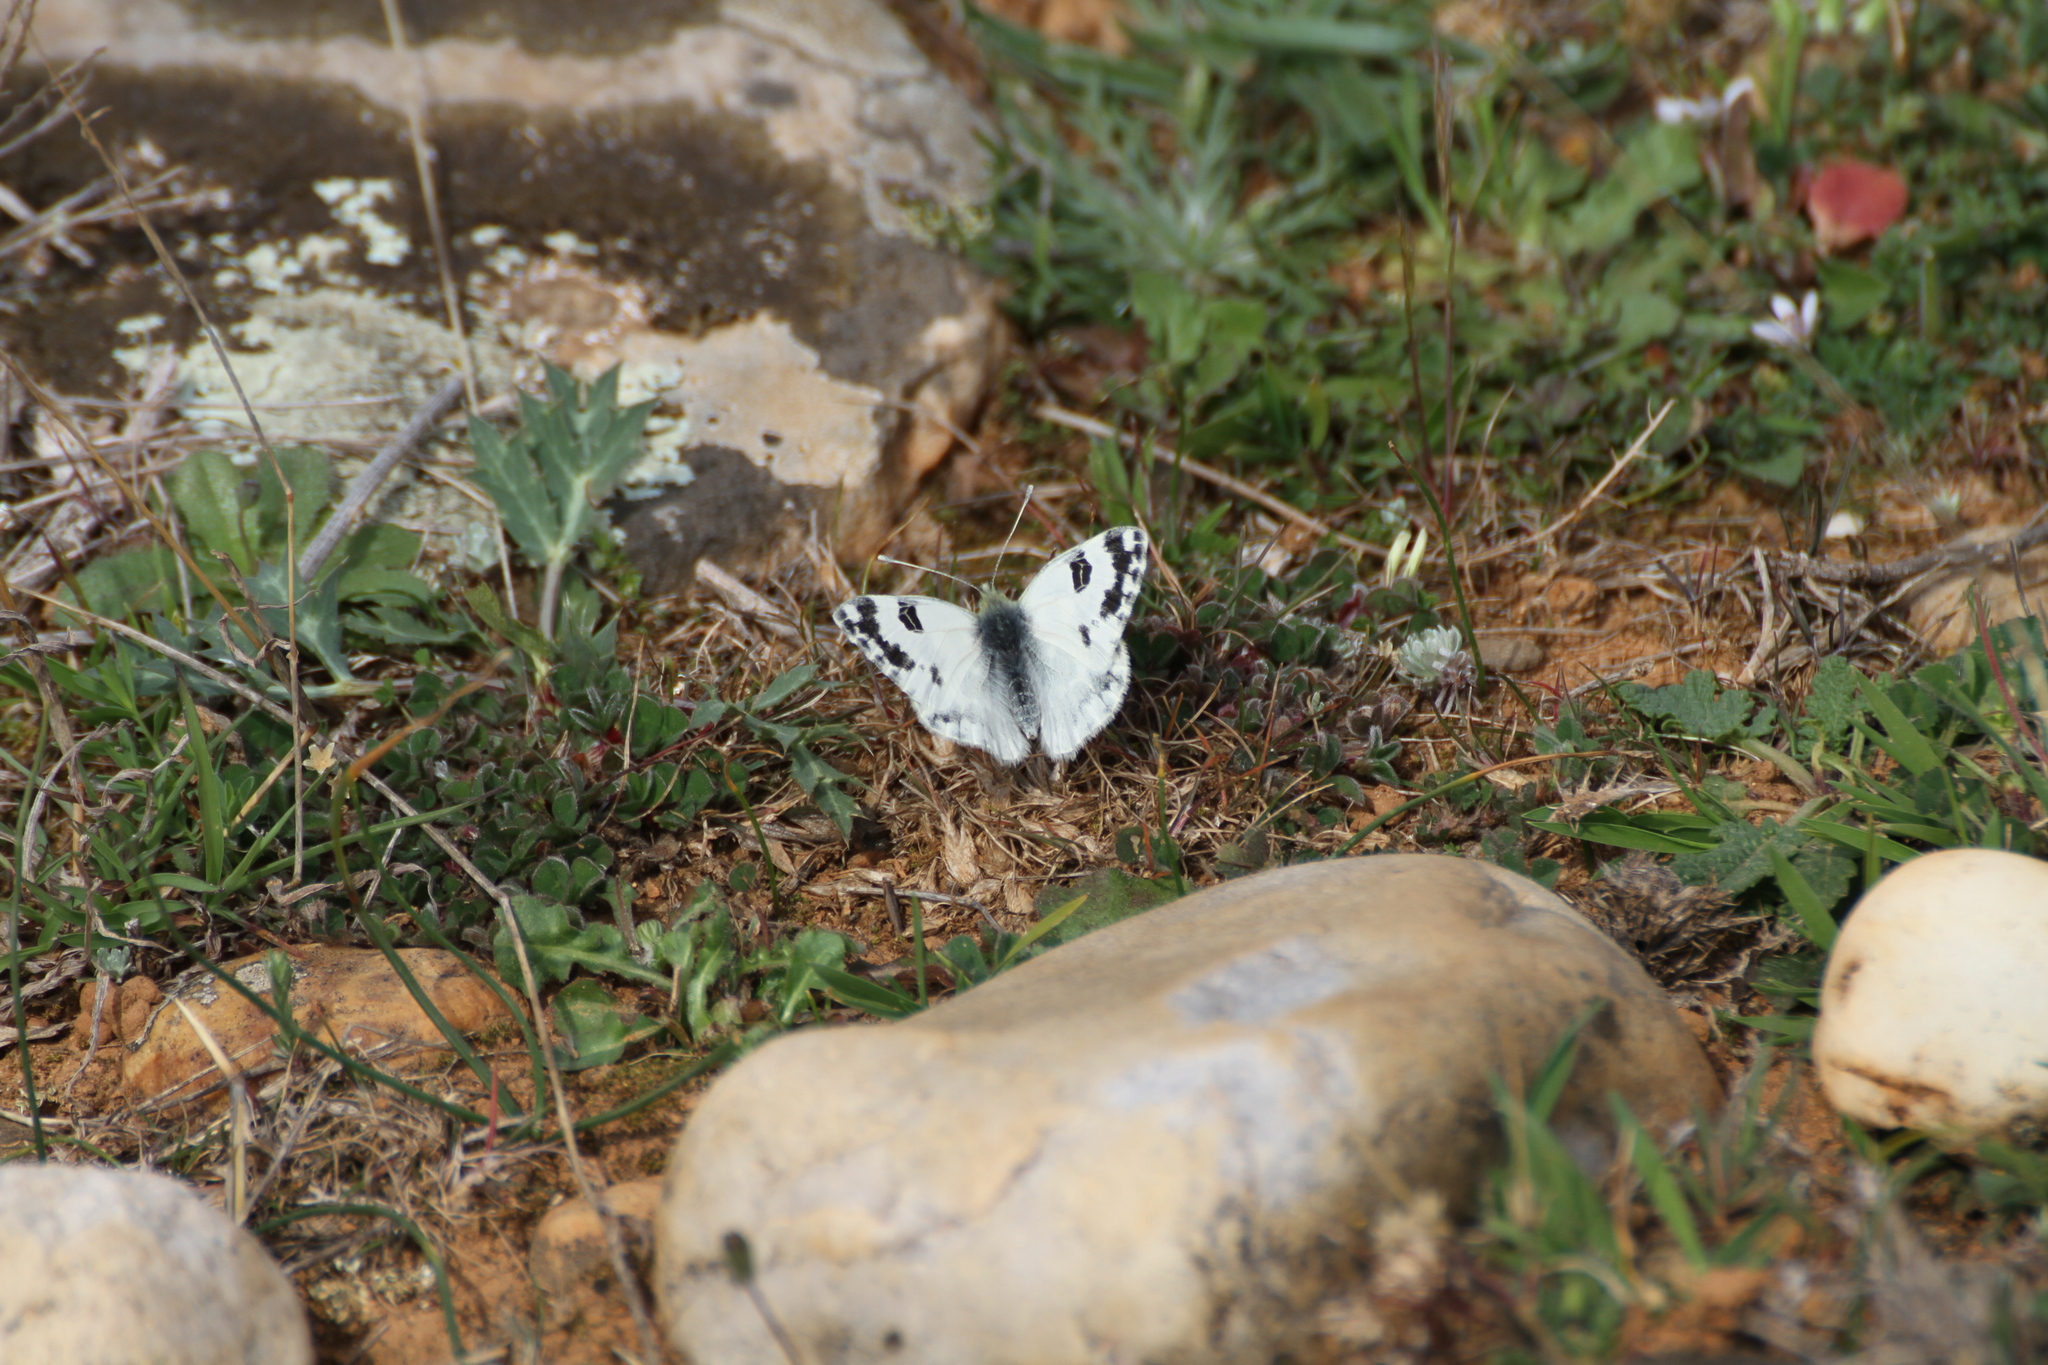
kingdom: Animalia
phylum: Arthropoda
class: Insecta
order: Lepidoptera
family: Pieridae
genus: Pontia
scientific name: Pontia daplidice
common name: Bath white
